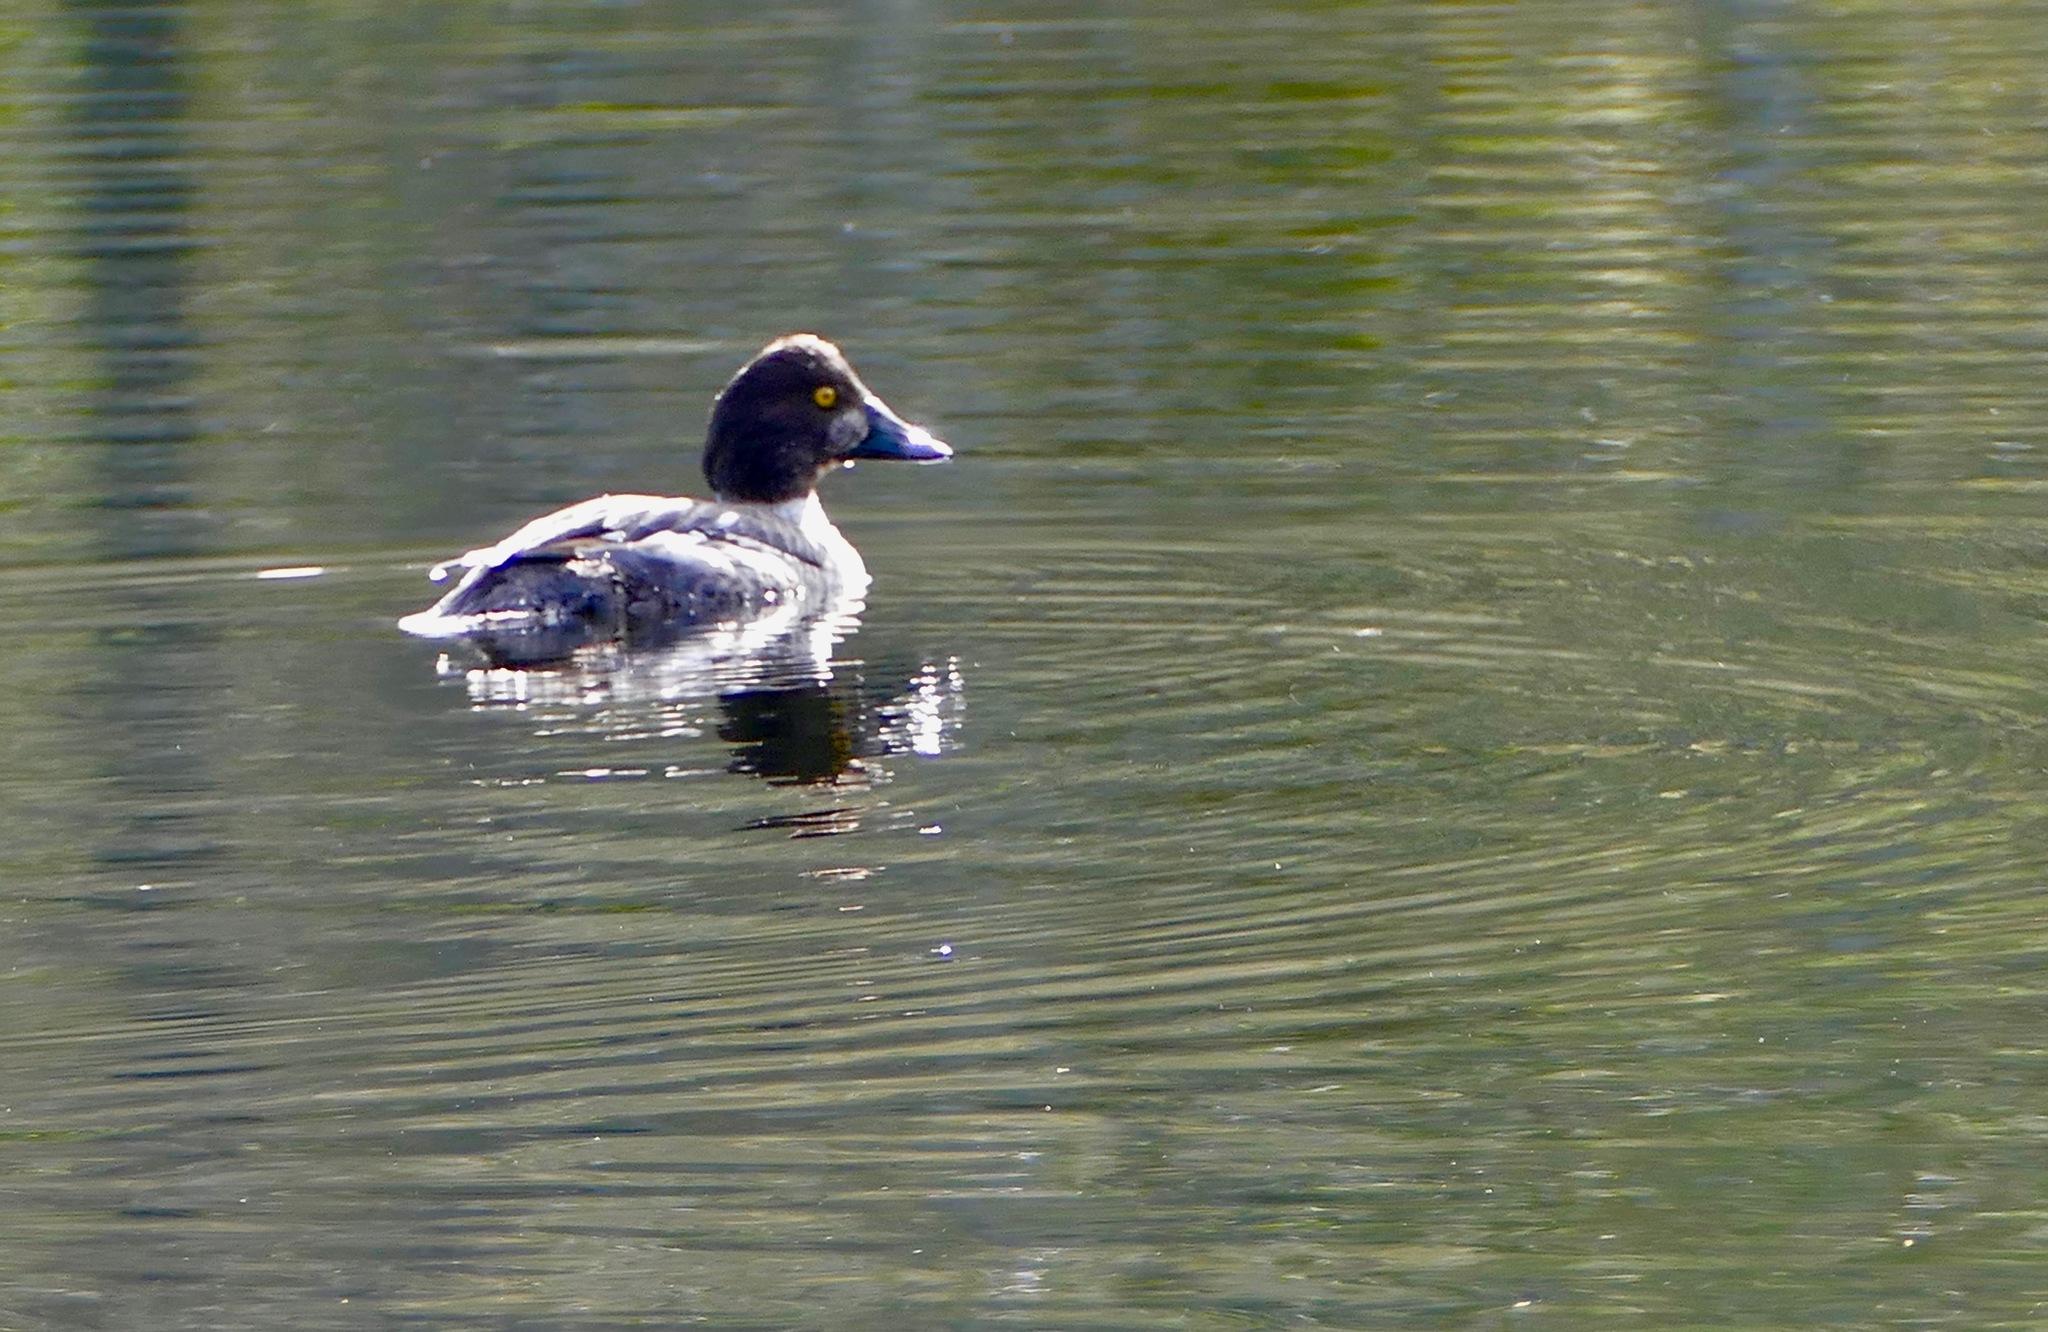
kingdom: Animalia
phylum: Chordata
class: Aves
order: Anseriformes
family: Anatidae
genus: Bucephala
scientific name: Bucephala clangula
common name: Common goldeneye
